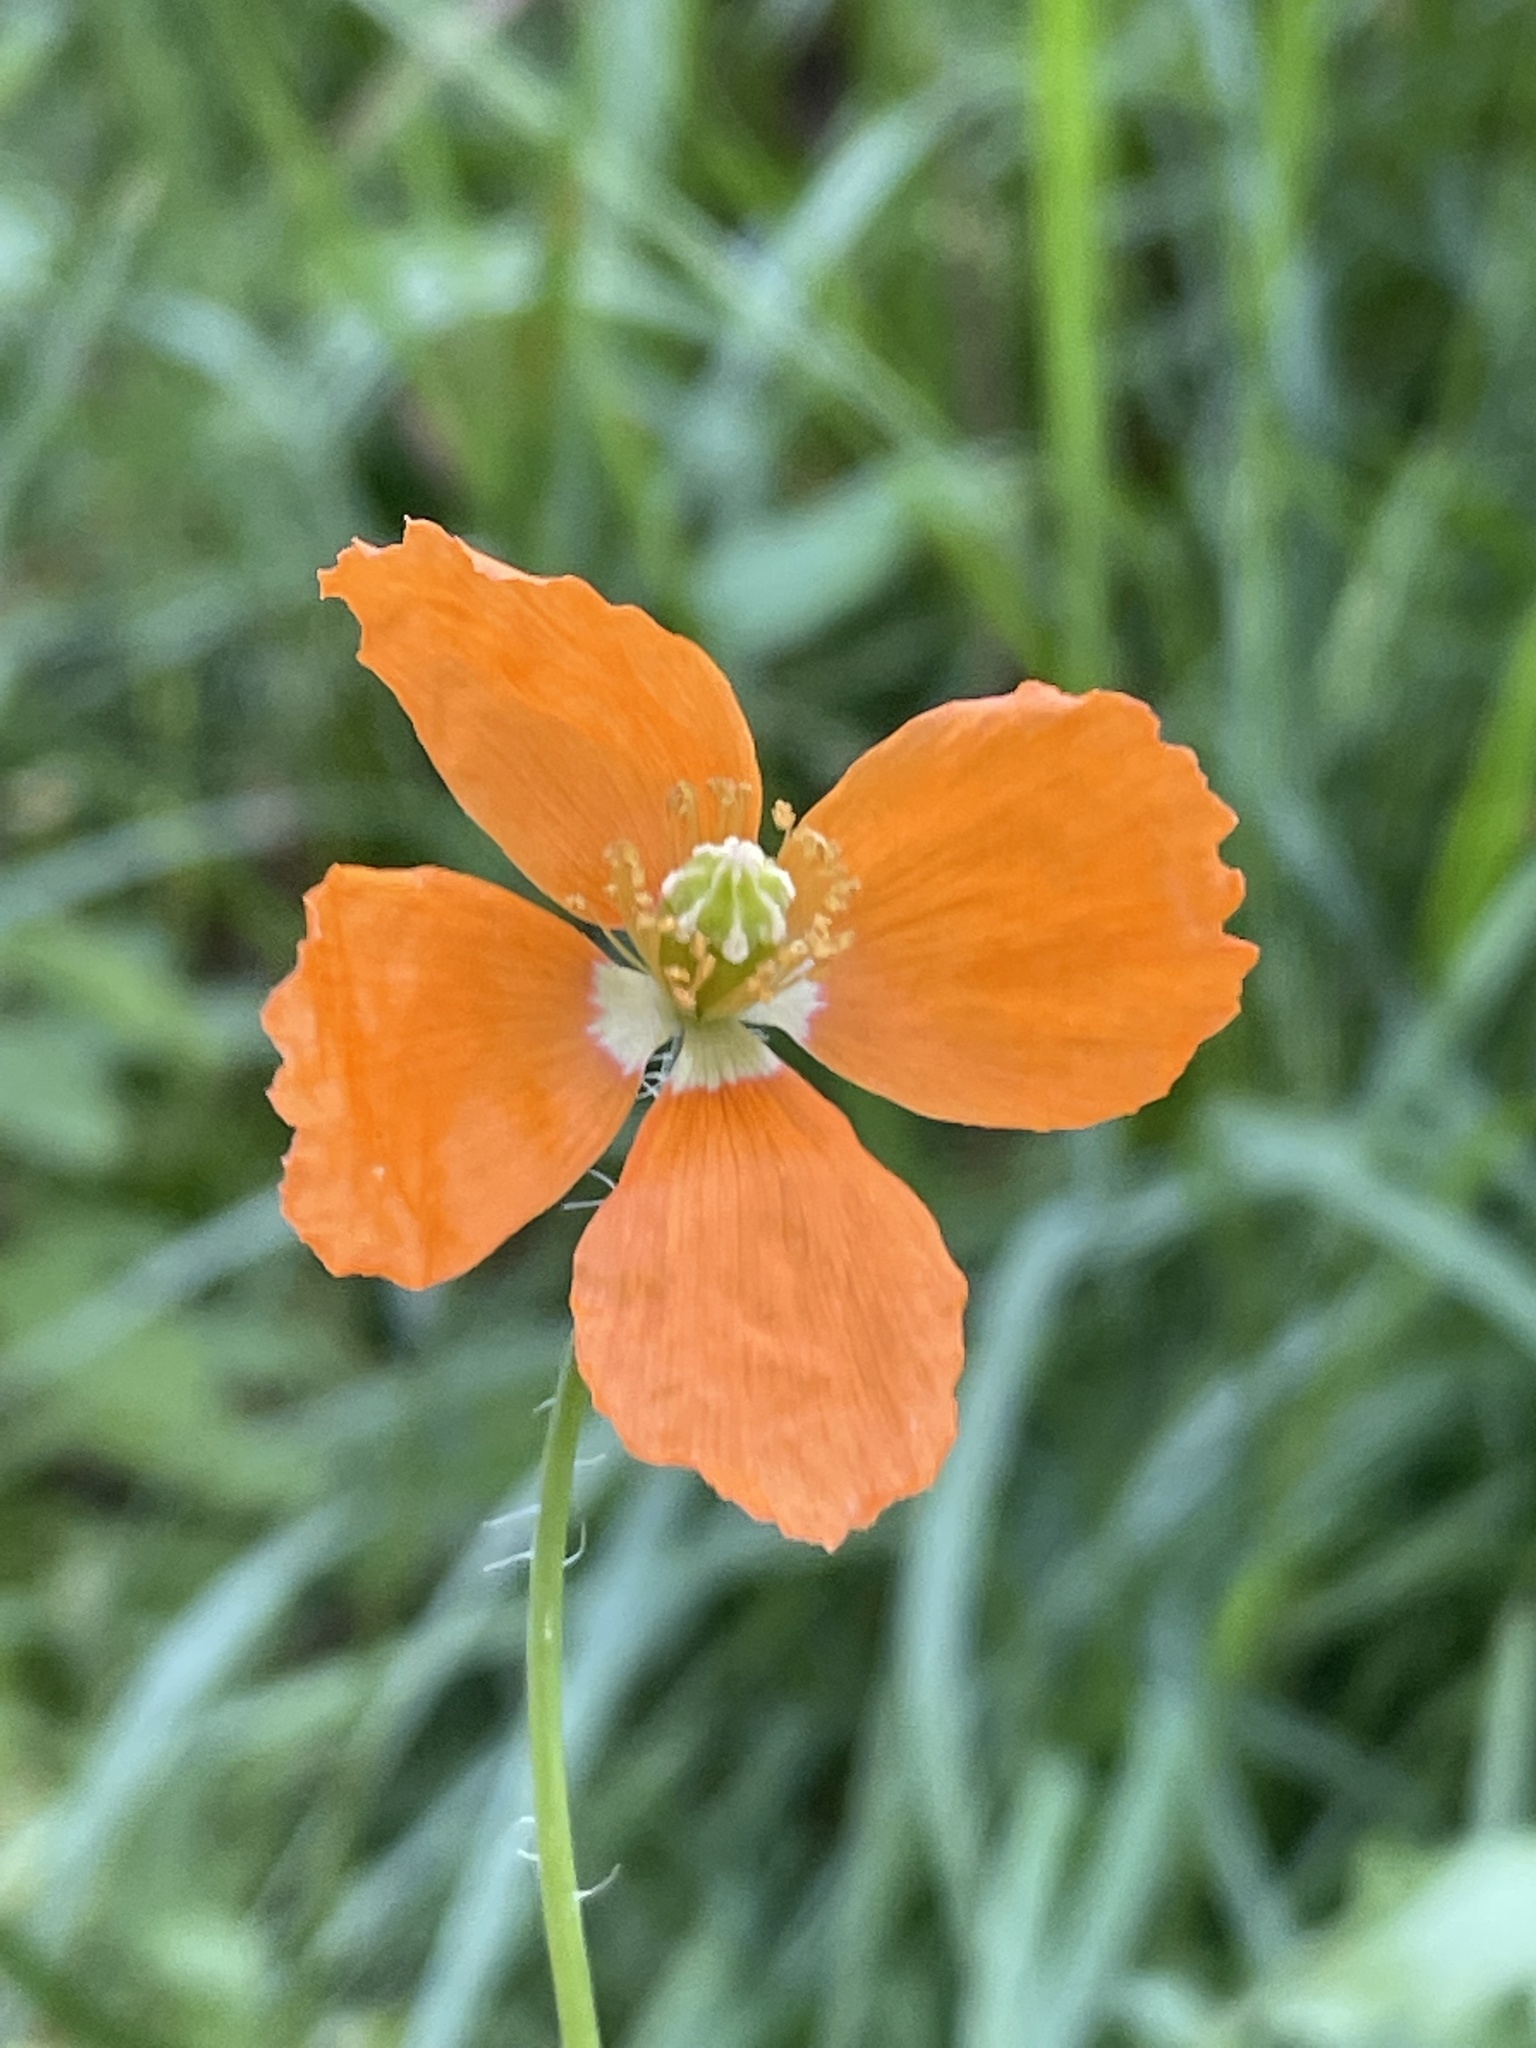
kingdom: Plantae
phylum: Tracheophyta
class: Magnoliopsida
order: Ranunculales
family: Papaveraceae
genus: Papaver
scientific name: Papaver californicum
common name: Fire poppy
